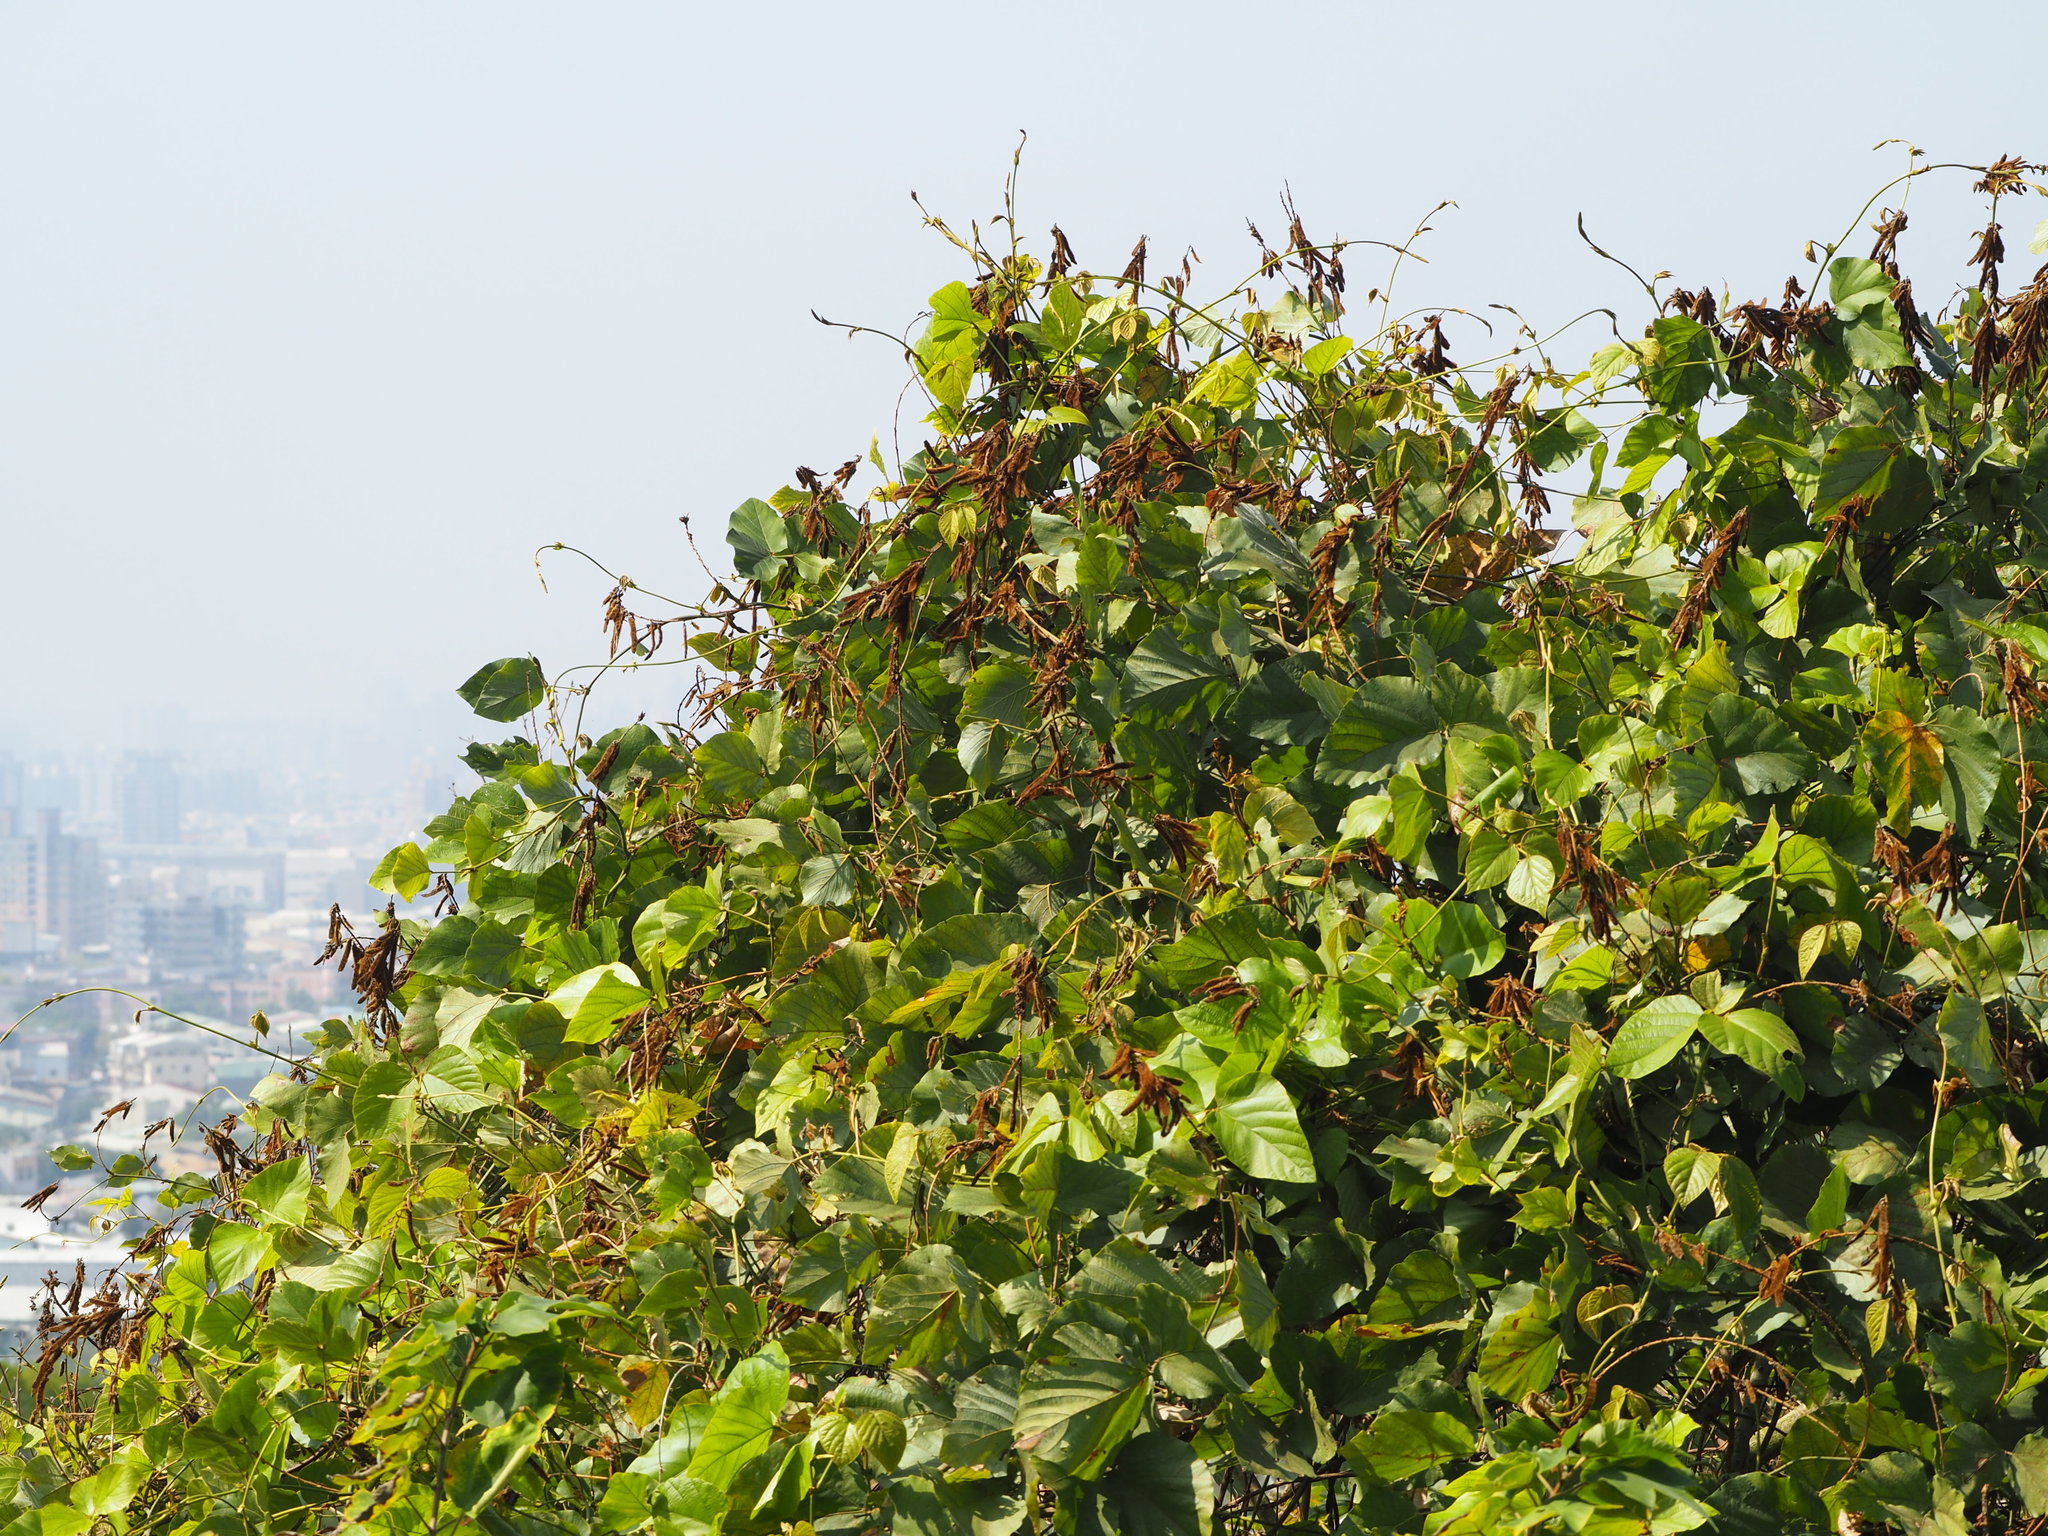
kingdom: Plantae
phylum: Tracheophyta
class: Magnoliopsida
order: Fabales
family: Fabaceae
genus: Pueraria
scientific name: Pueraria montana
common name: Kudzu
